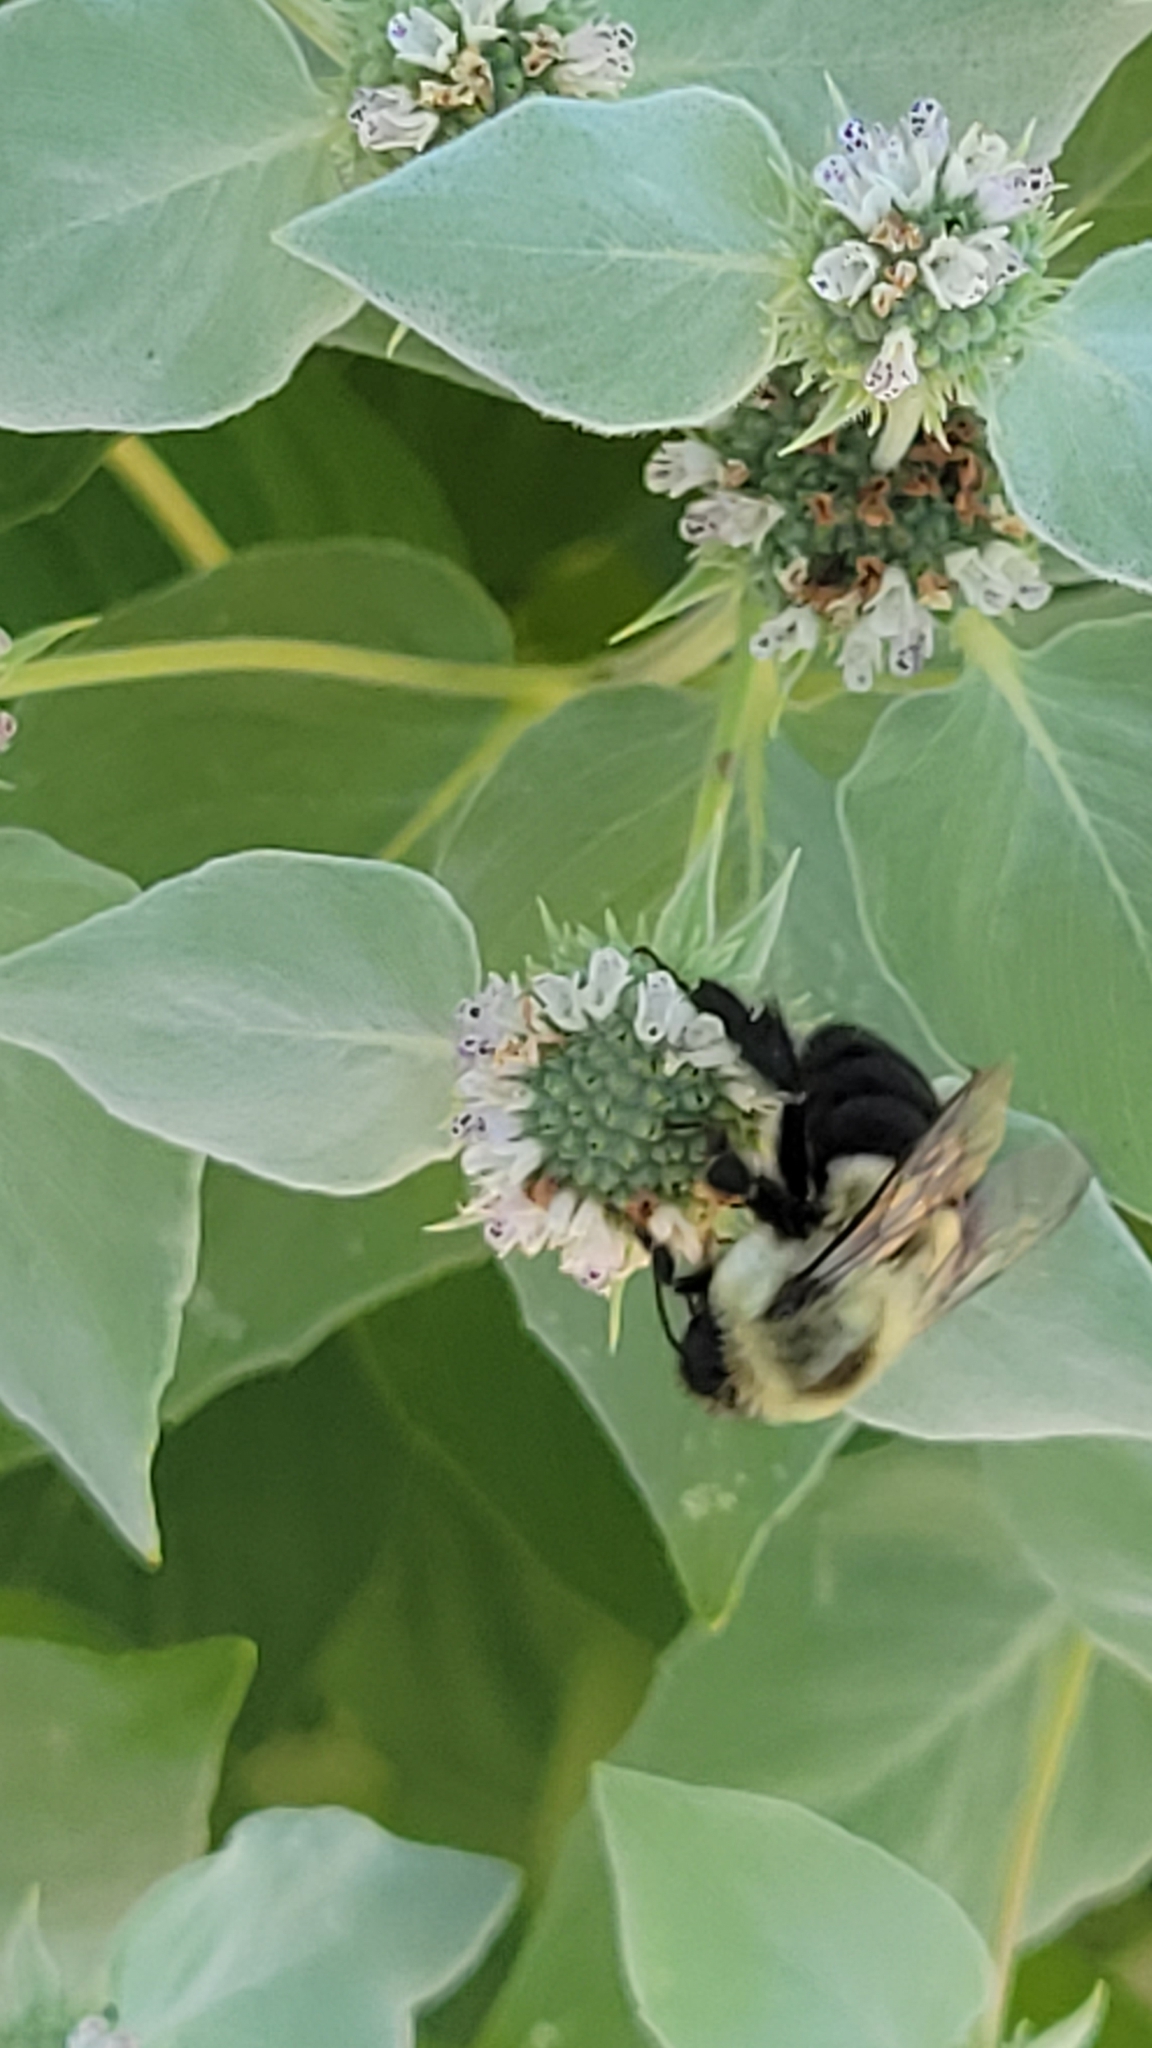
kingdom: Animalia
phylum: Arthropoda
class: Insecta
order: Hymenoptera
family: Apidae
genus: Bombus
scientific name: Bombus impatiens
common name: Common eastern bumble bee
